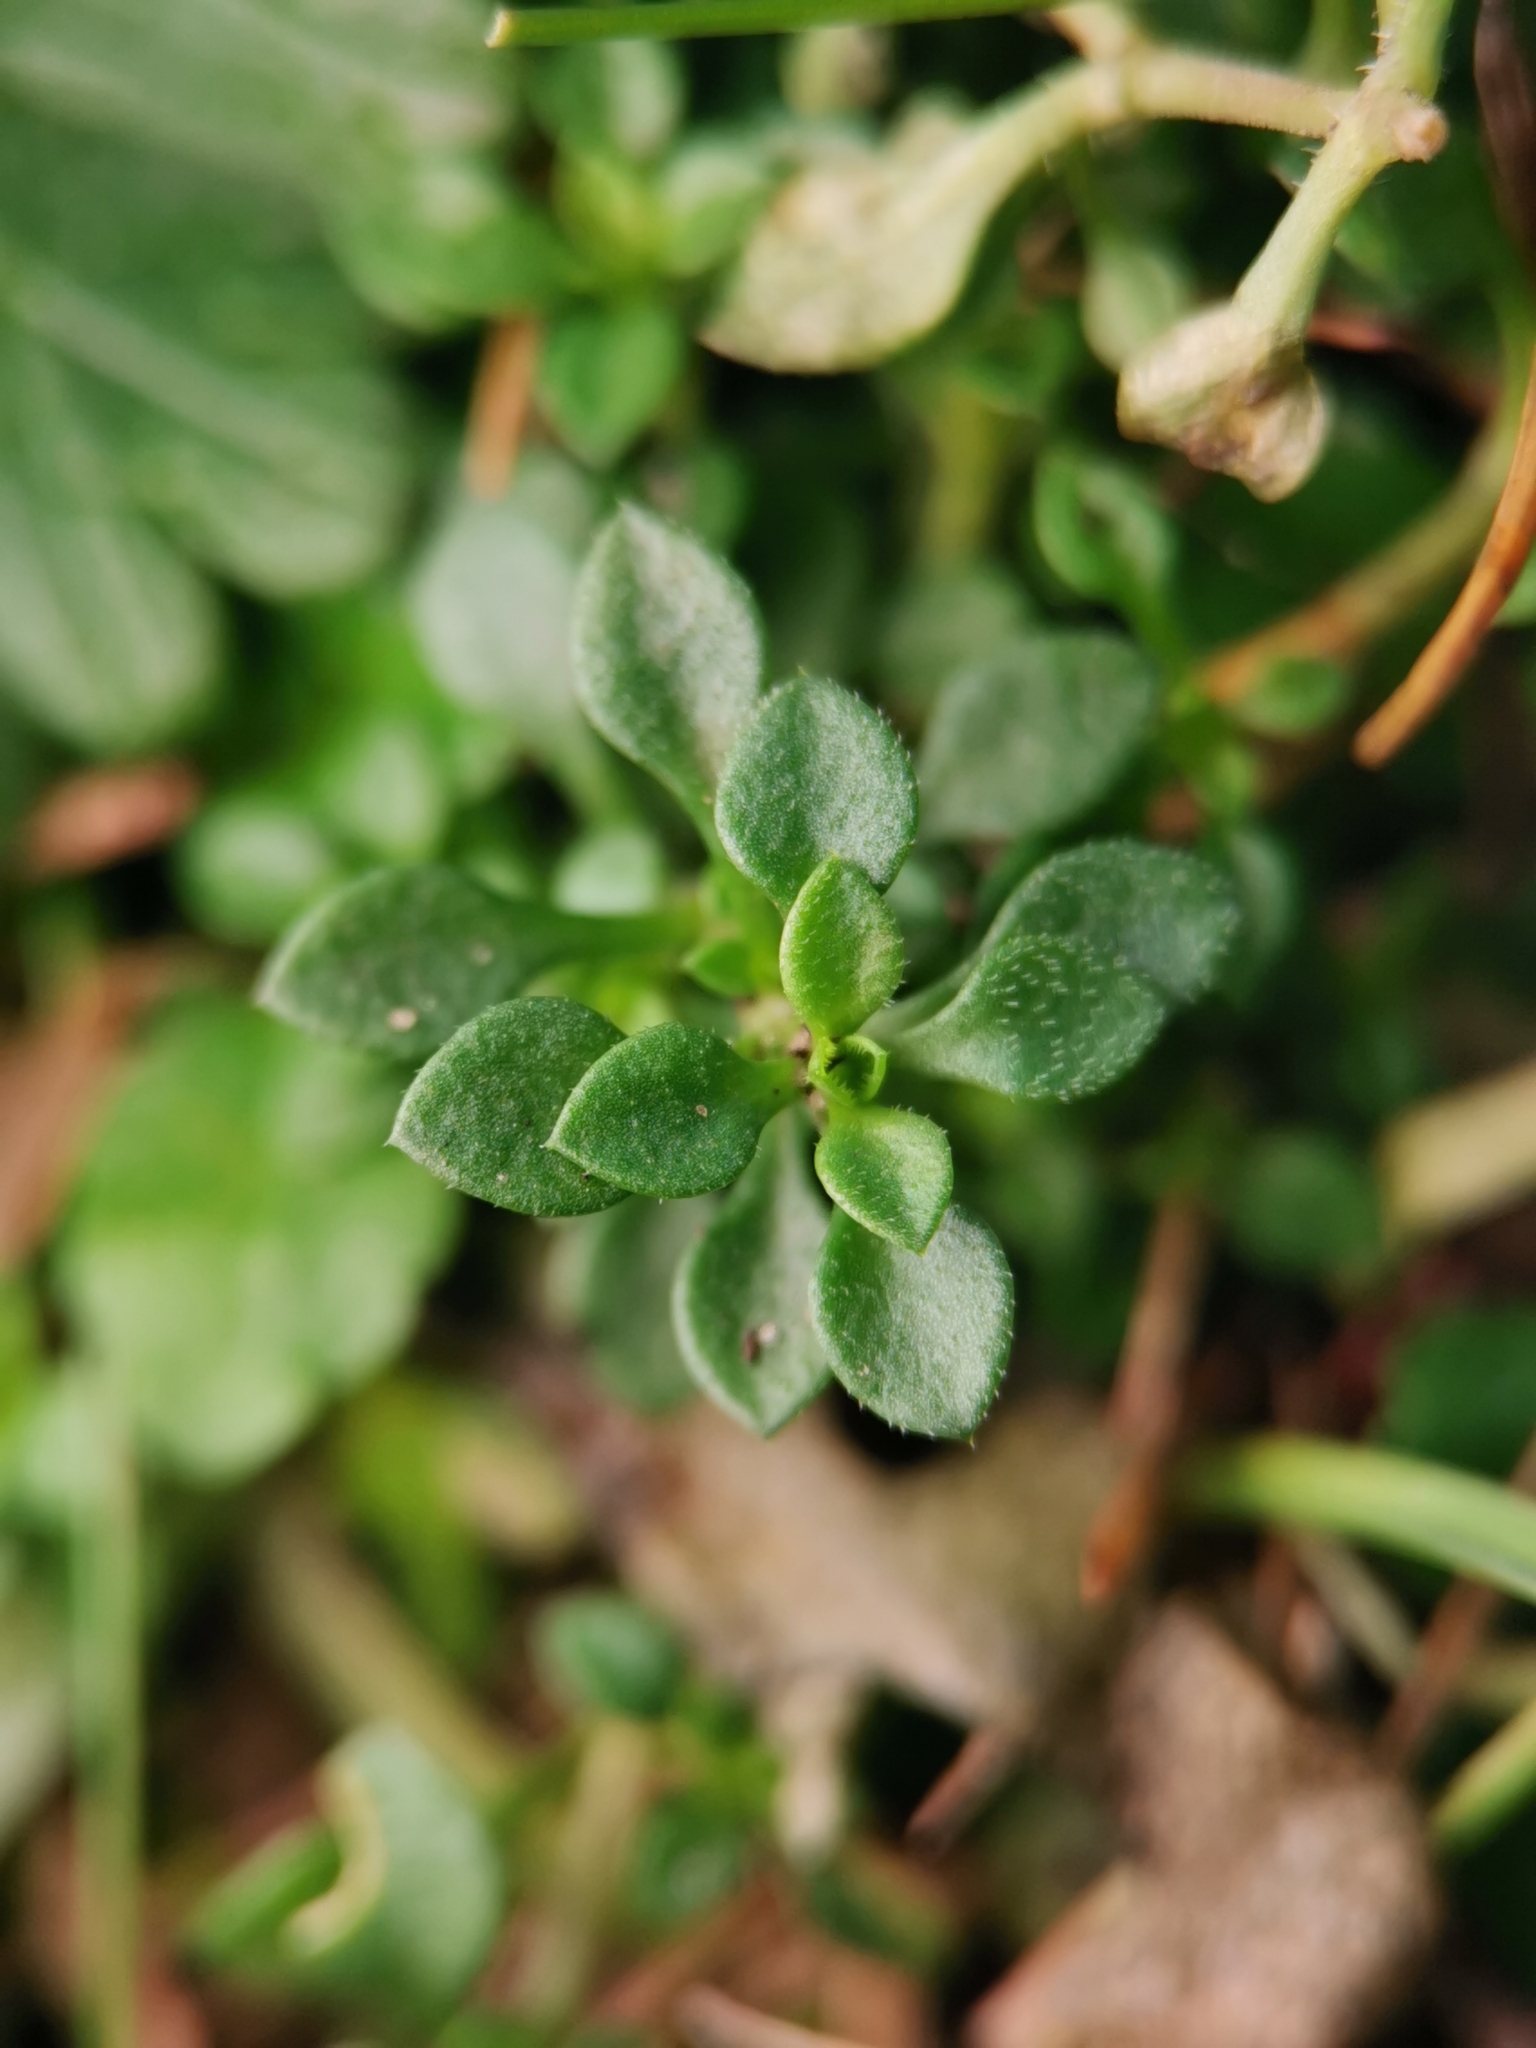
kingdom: Plantae
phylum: Tracheophyta
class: Magnoliopsida
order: Caryophyllales
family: Caryophyllaceae
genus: Arenaria
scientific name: Arenaria serpyllifolia
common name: Thyme-leaved sandwort
